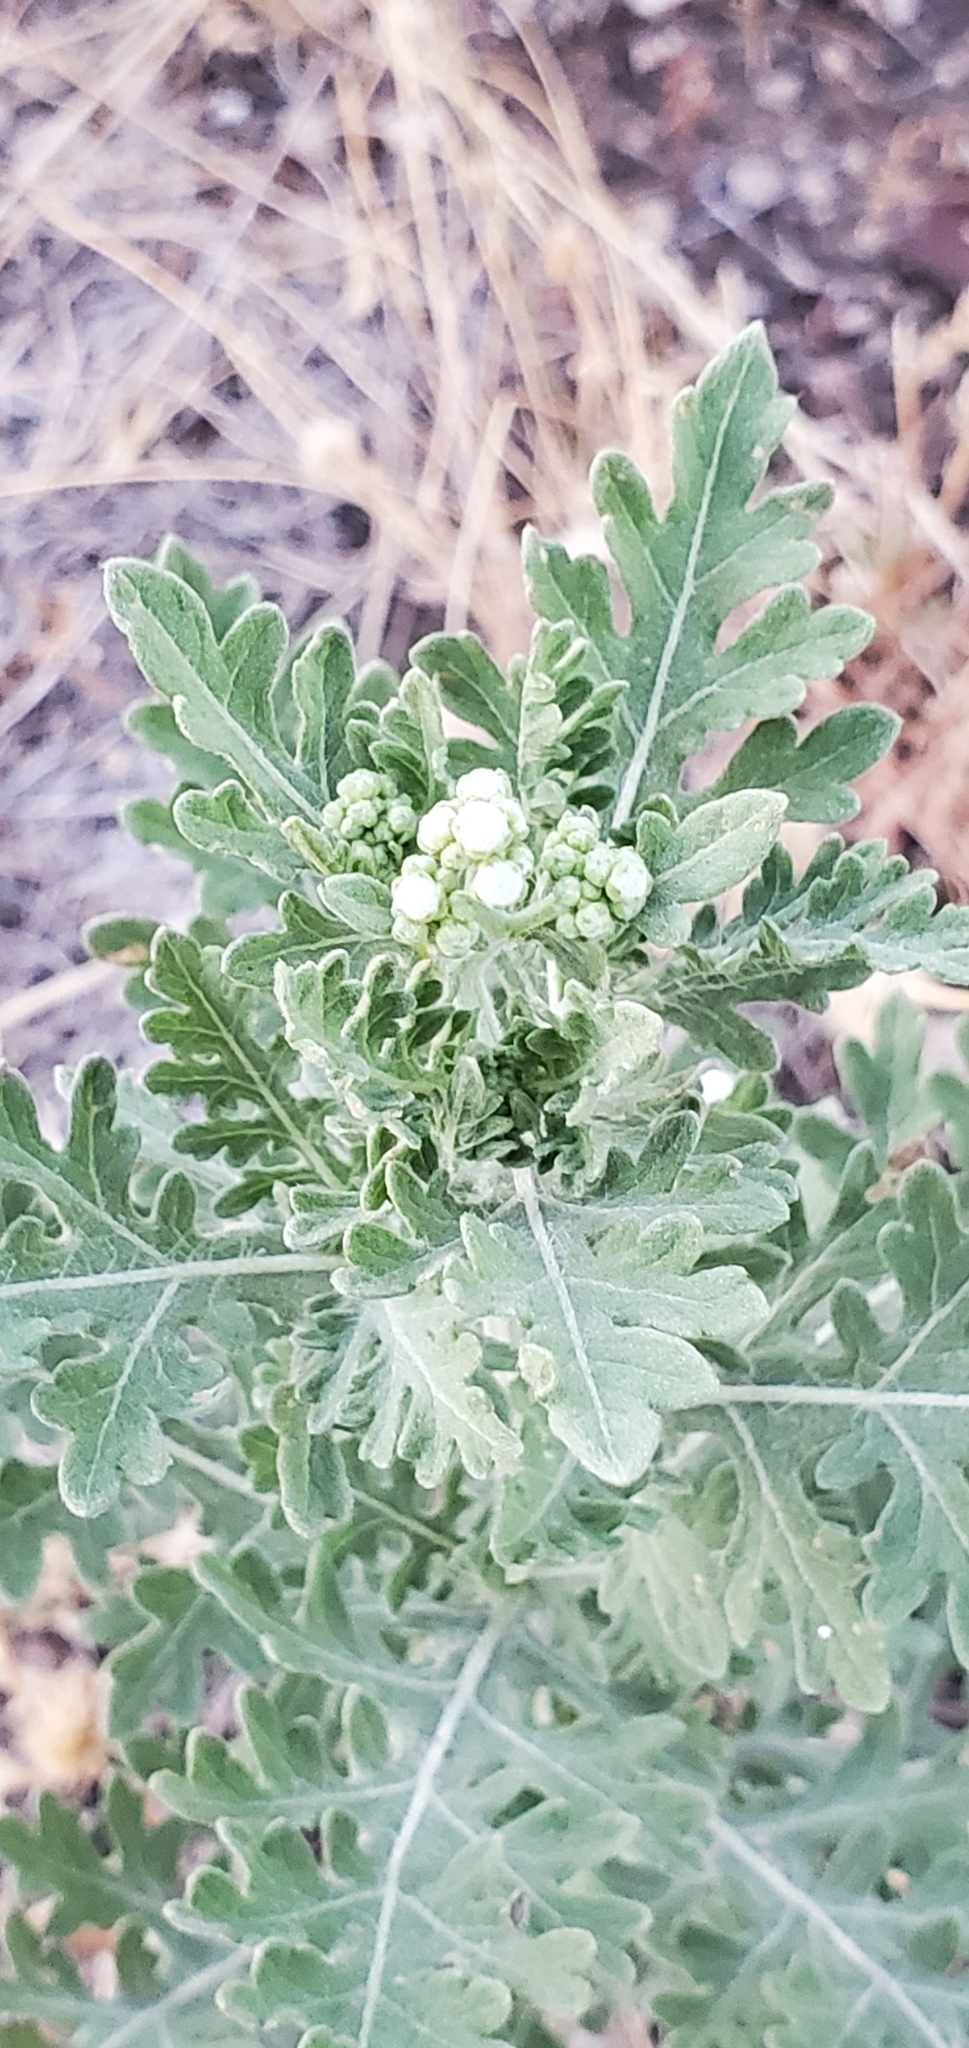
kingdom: Plantae
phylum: Tracheophyta
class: Magnoliopsida
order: Asterales
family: Asteraceae
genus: Parthenium
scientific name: Parthenium confertum
